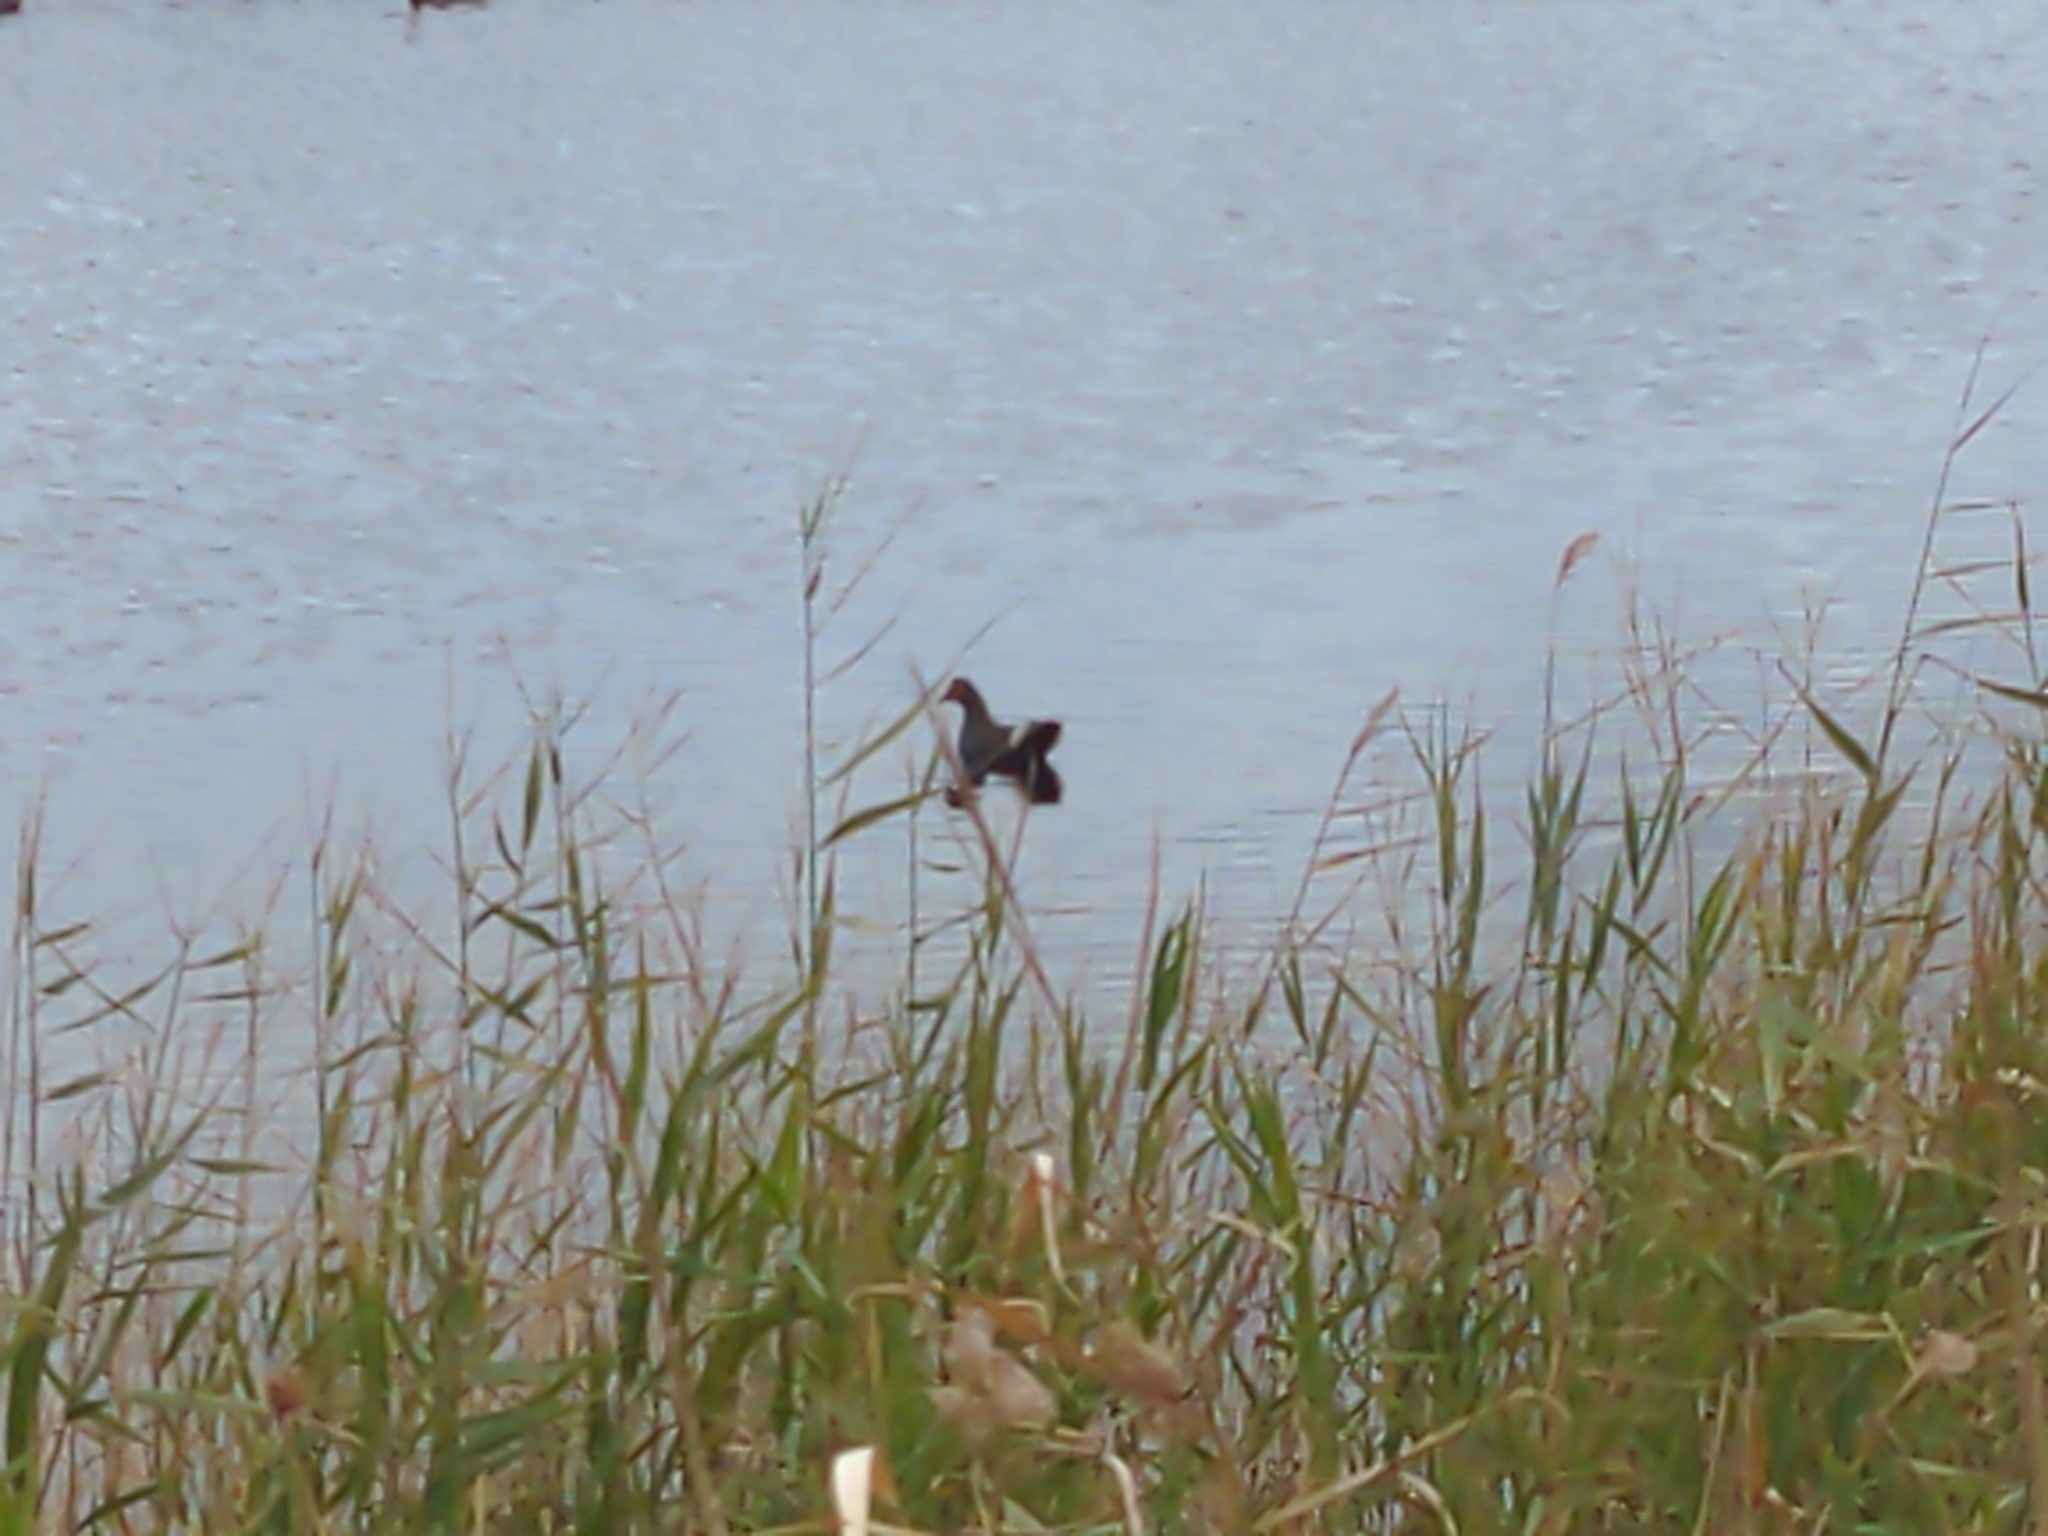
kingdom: Animalia
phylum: Chordata
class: Aves
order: Gruiformes
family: Rallidae
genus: Gallinula
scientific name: Gallinula tenebrosa
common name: Dusky moorhen
